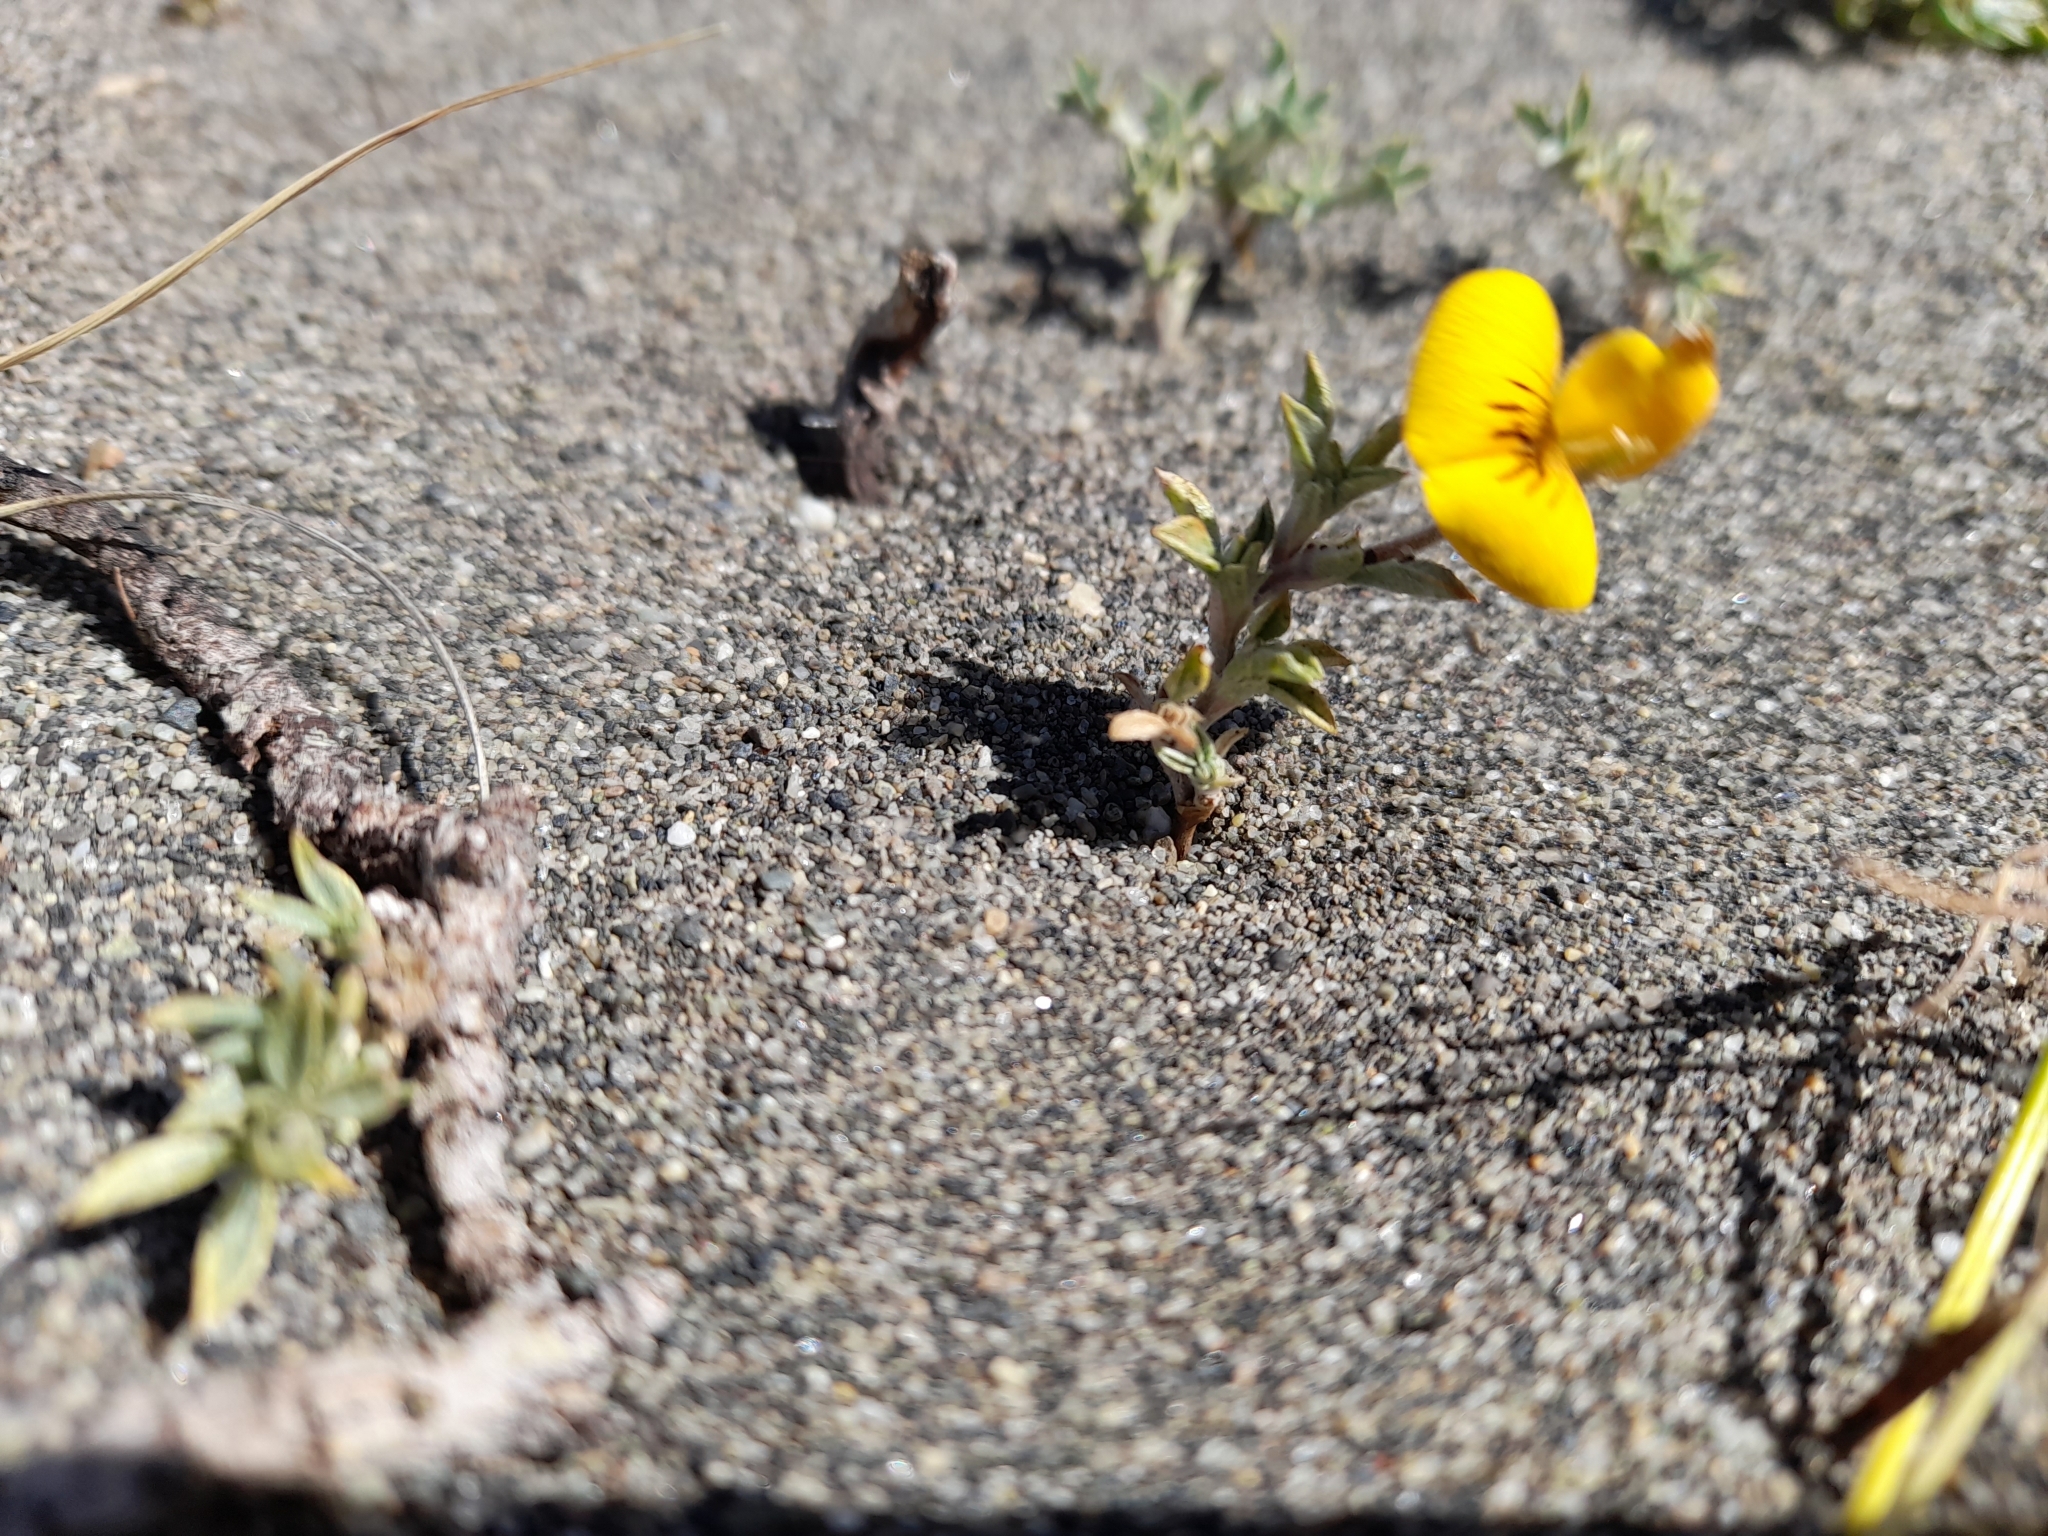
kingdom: Plantae
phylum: Tracheophyta
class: Magnoliopsida
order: Fabales
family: Fabaceae
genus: Adesmia
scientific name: Adesmia lotoides
